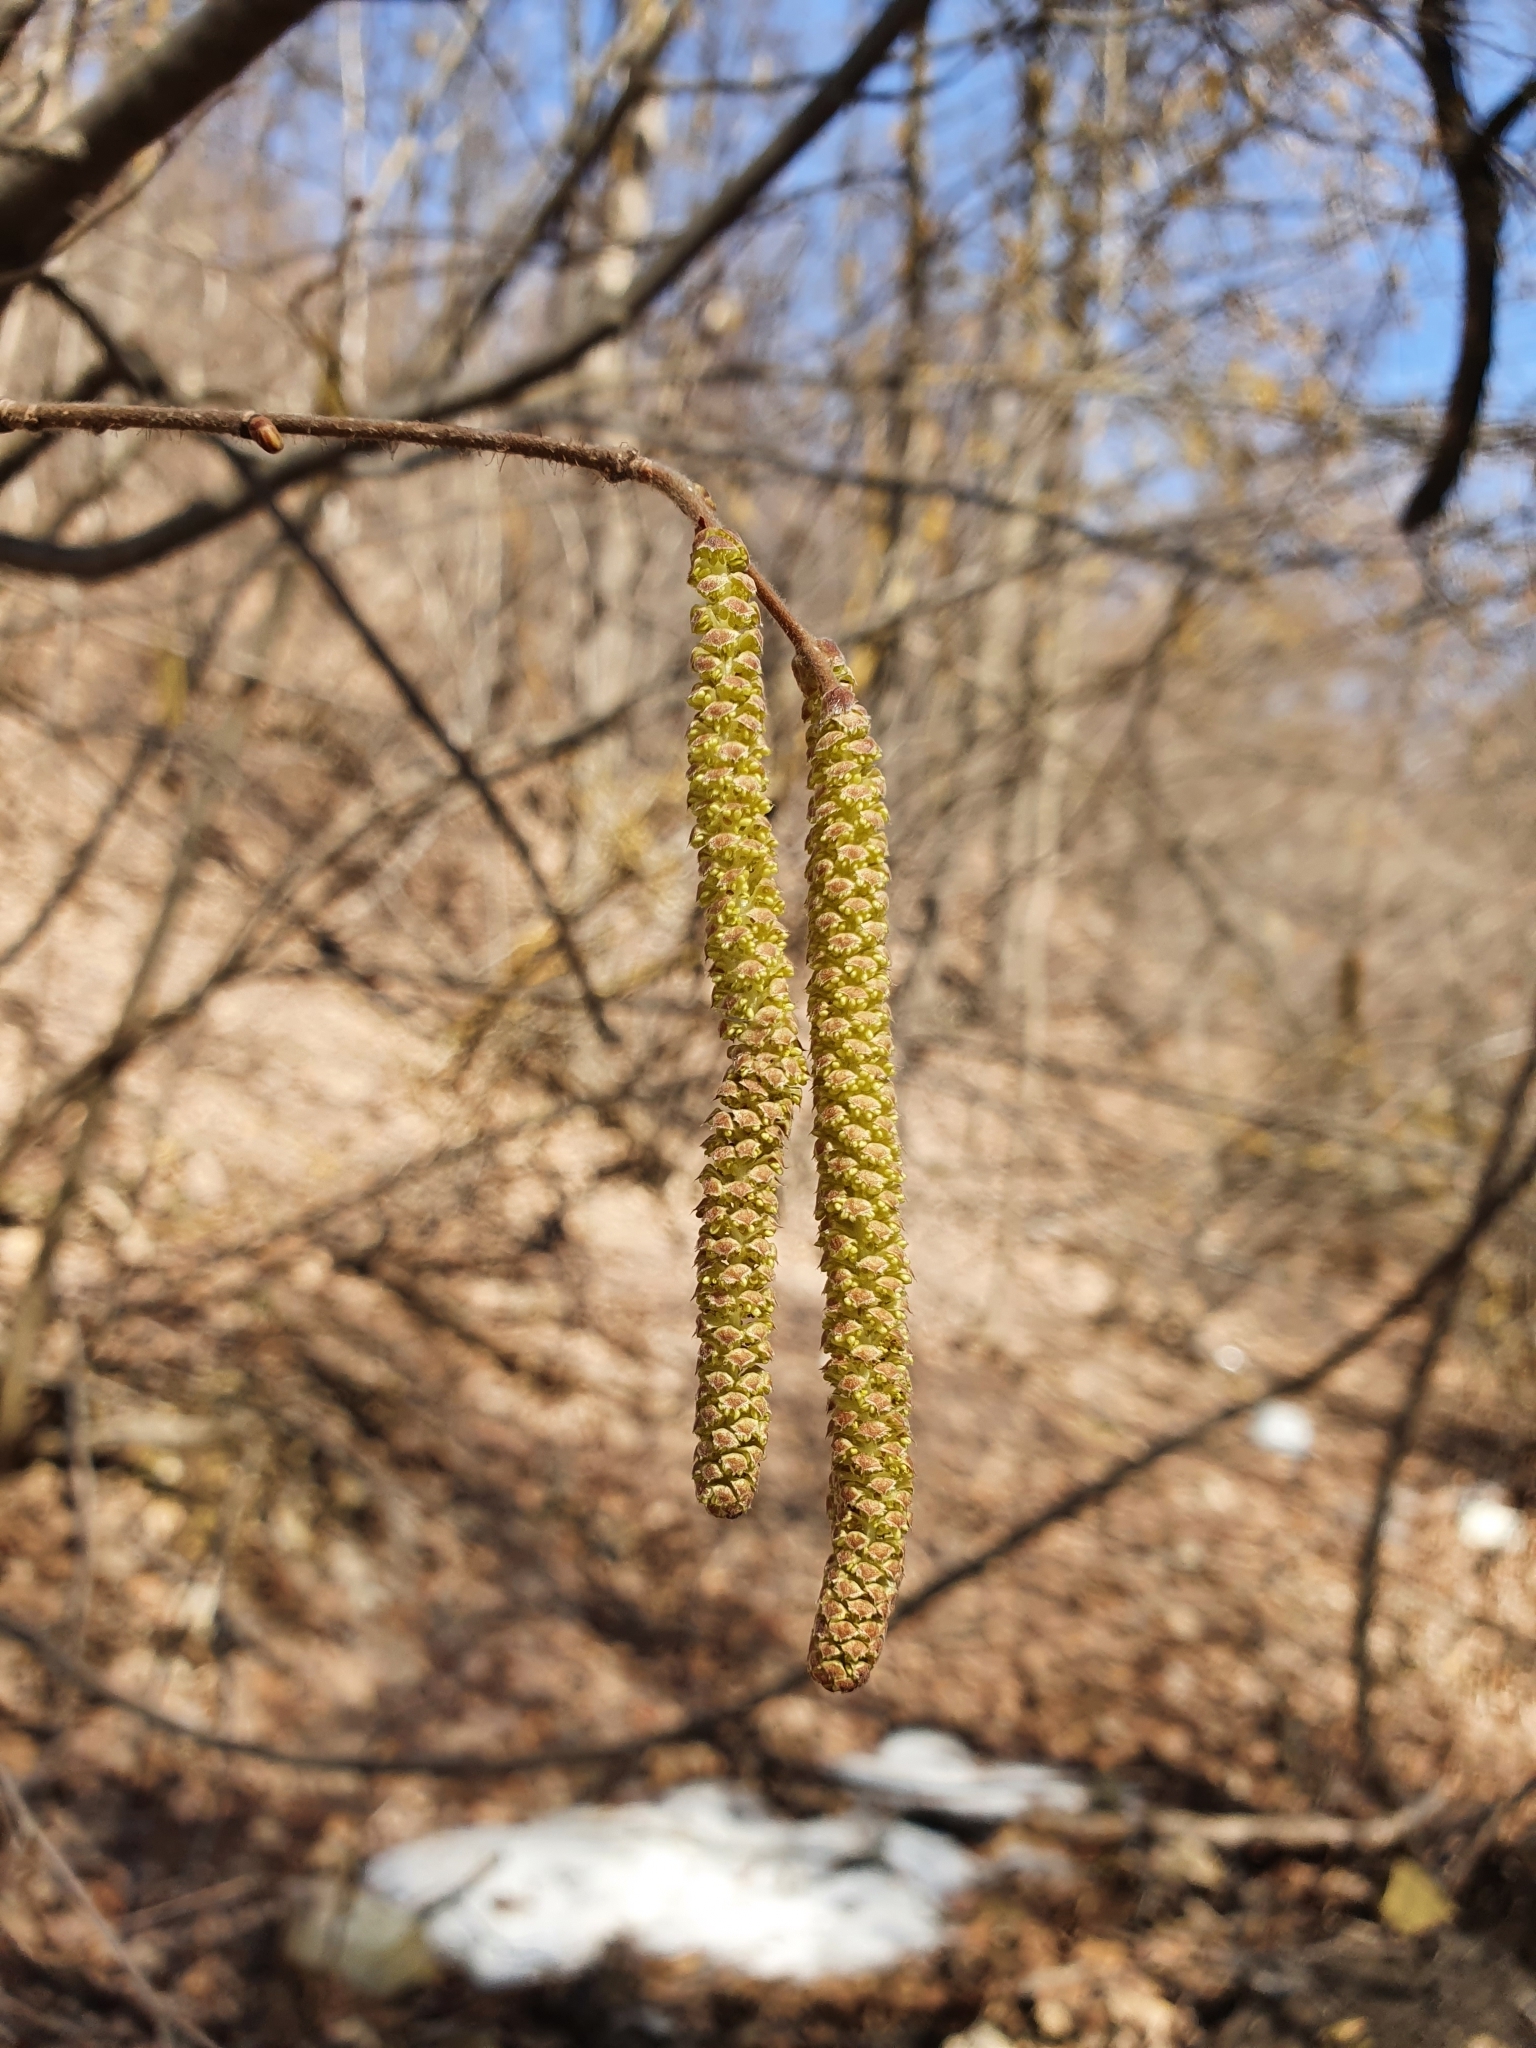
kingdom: Plantae
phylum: Tracheophyta
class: Magnoliopsida
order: Fagales
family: Betulaceae
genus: Corylus
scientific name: Corylus avellana
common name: European hazel
